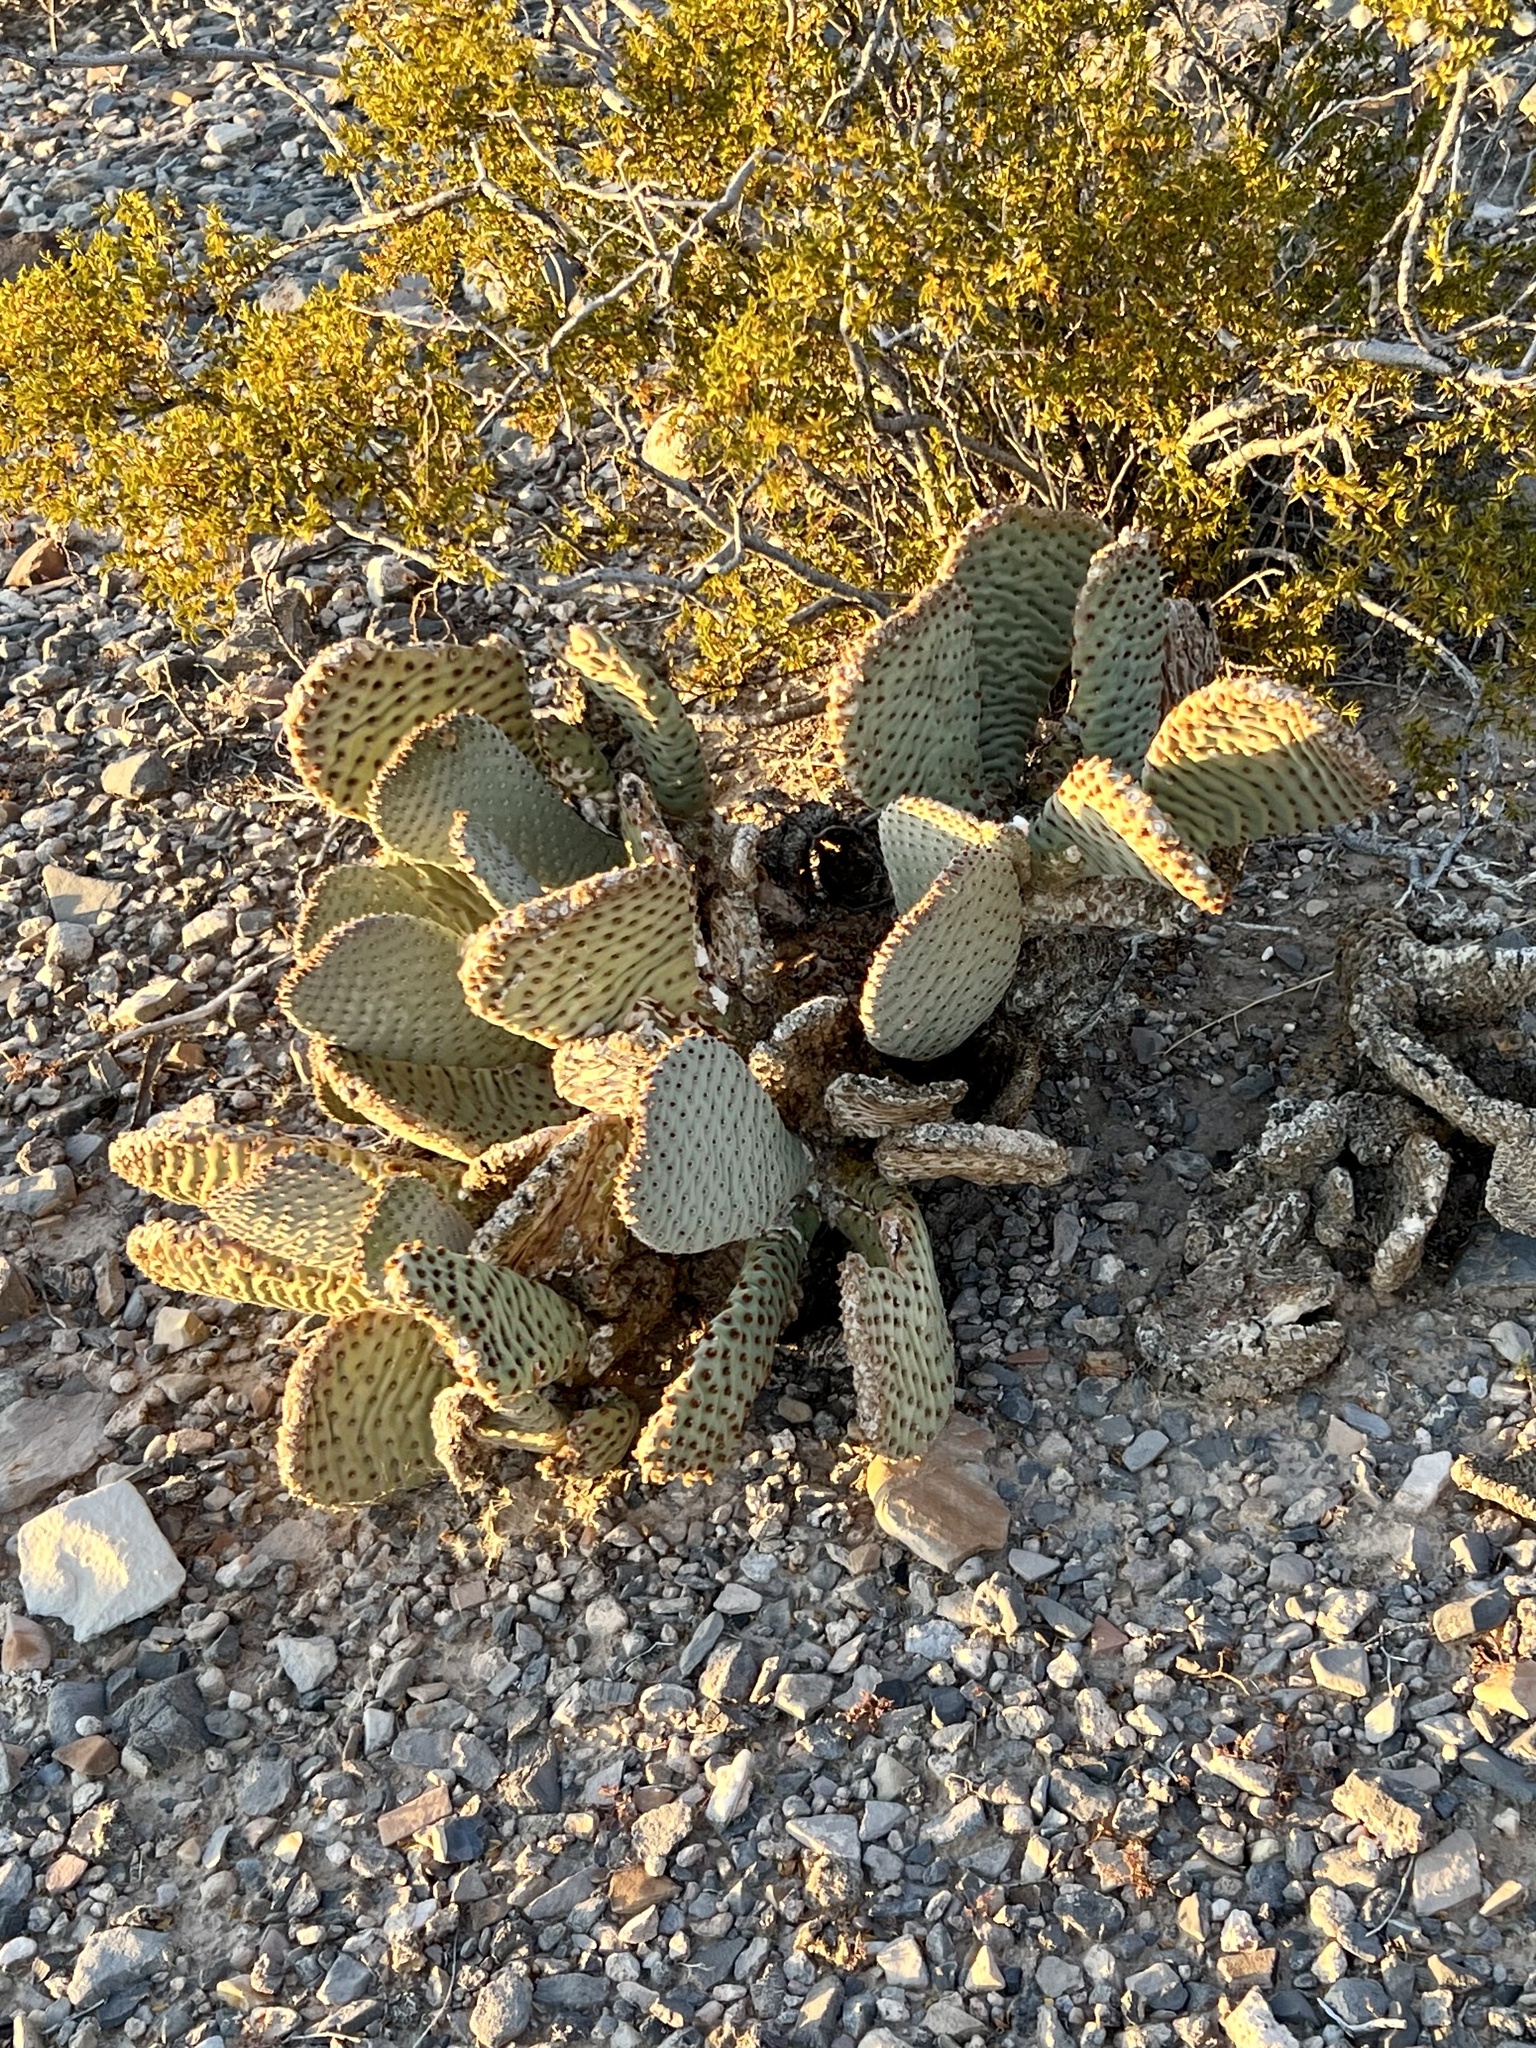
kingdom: Plantae
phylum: Tracheophyta
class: Magnoliopsida
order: Caryophyllales
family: Cactaceae
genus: Opuntia
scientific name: Opuntia basilaris
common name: Beavertail prickly-pear
